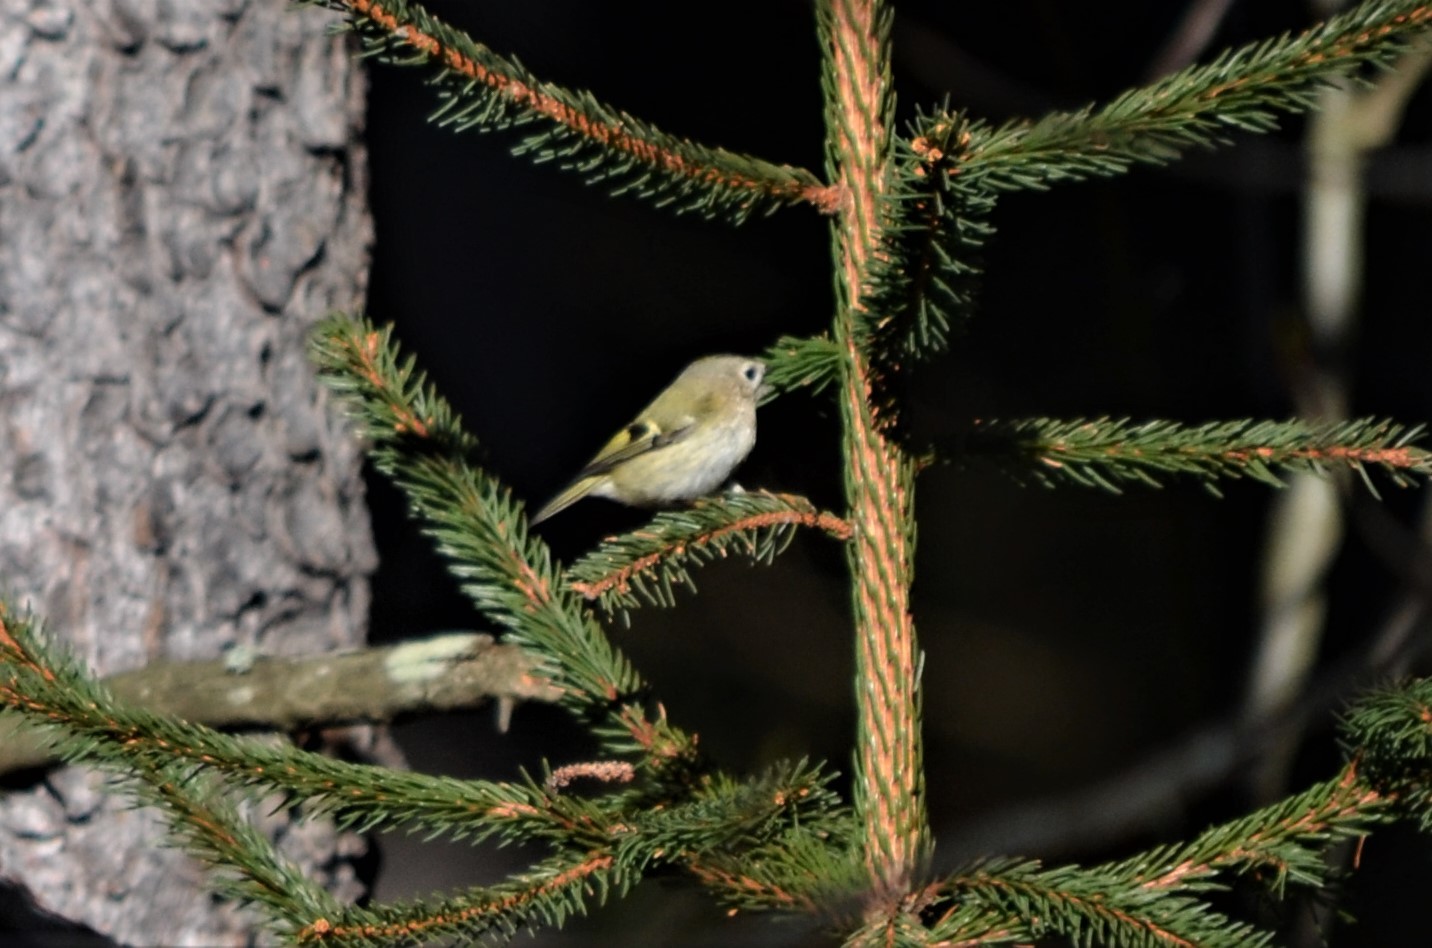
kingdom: Animalia
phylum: Chordata
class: Aves
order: Passeriformes
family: Regulidae
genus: Regulus
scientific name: Regulus regulus
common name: Goldcrest
